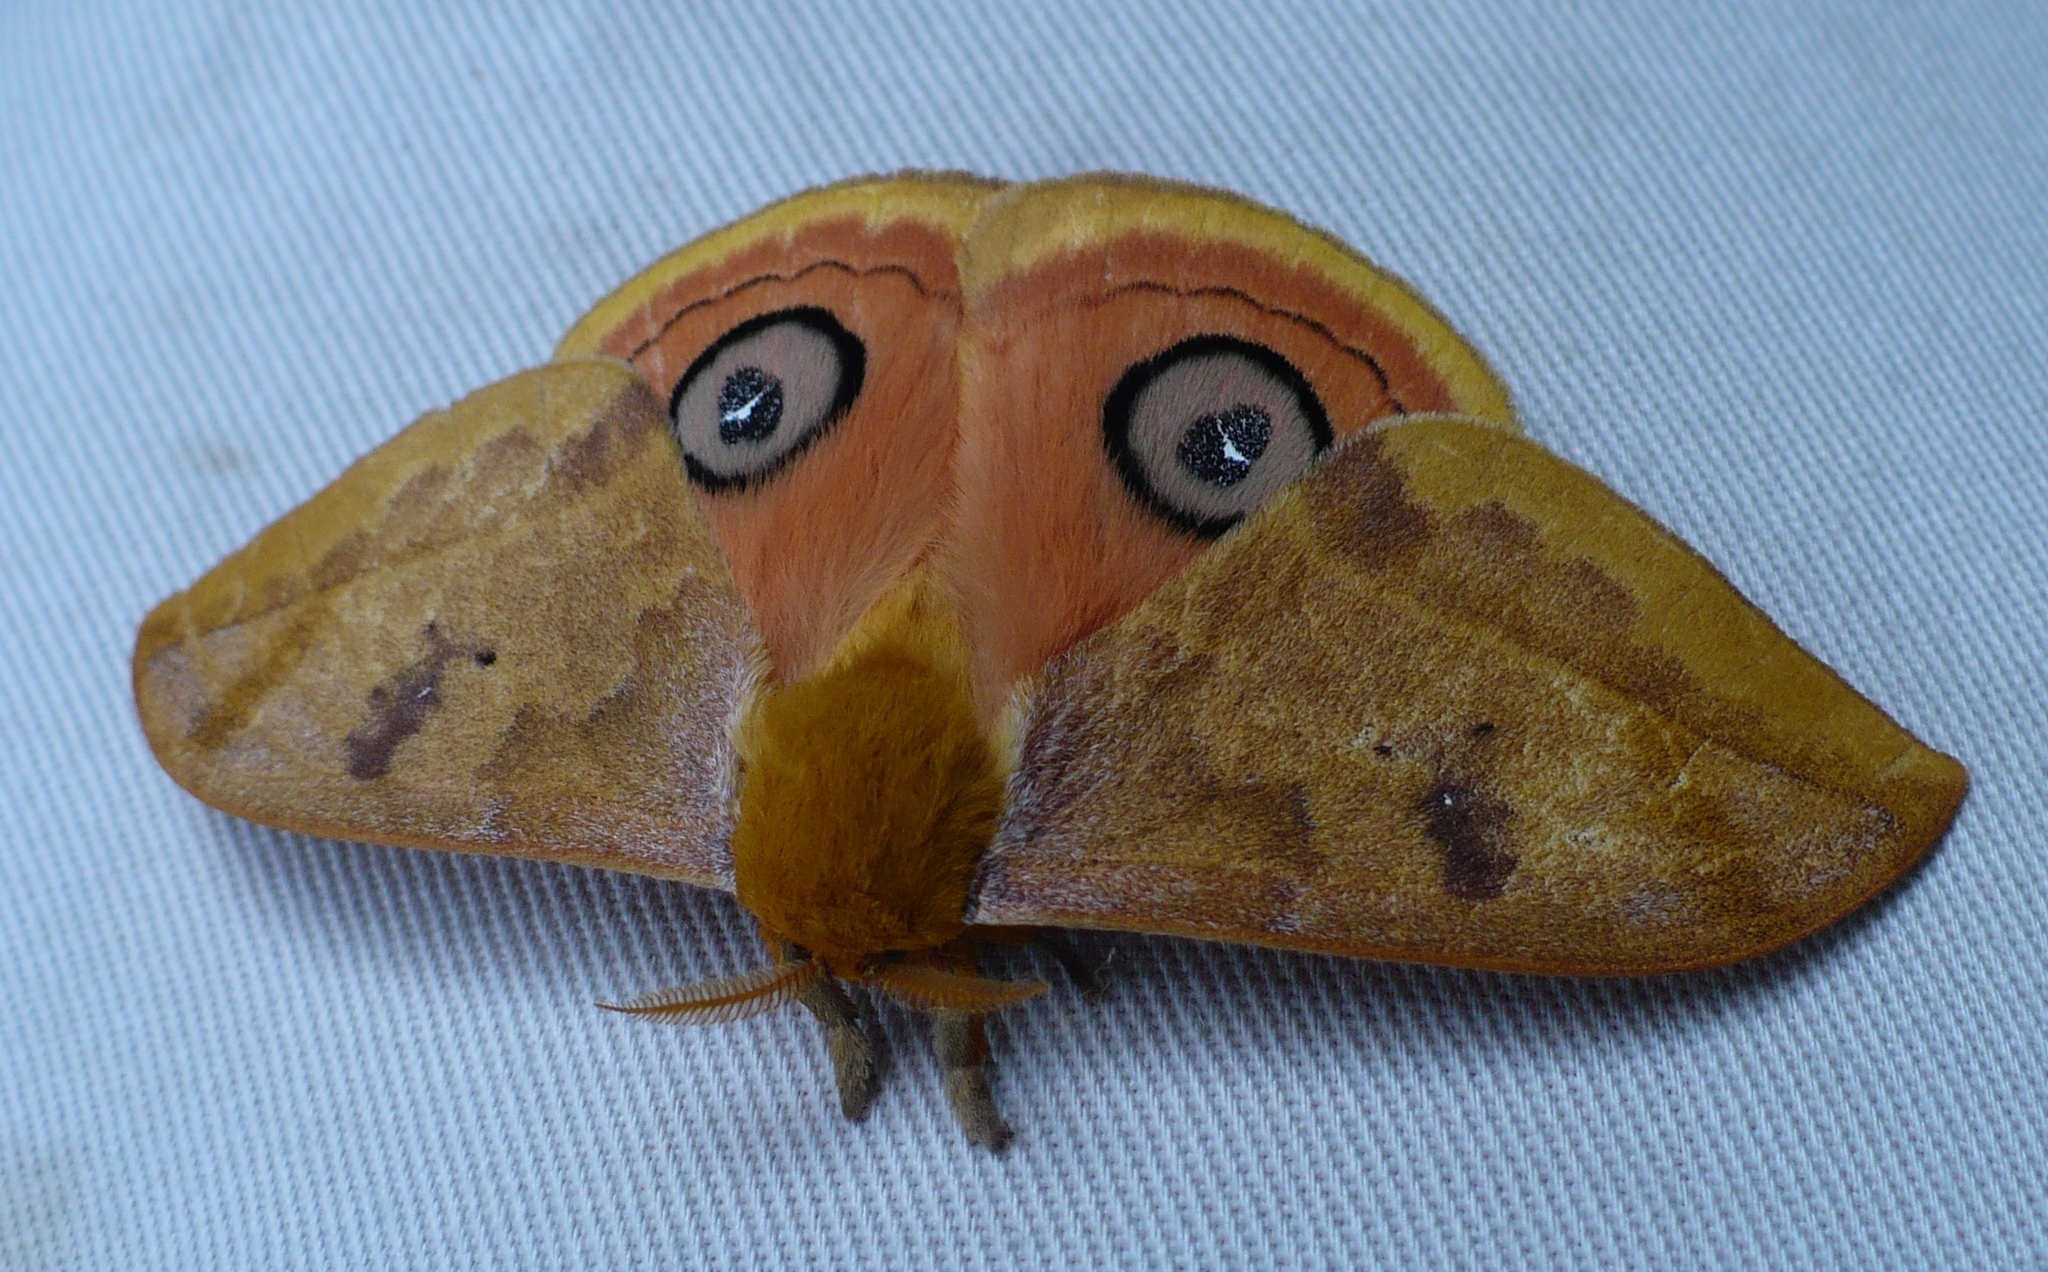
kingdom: Animalia
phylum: Arthropoda
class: Insecta
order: Lepidoptera
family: Saturniidae
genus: Automeris
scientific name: Automeris jucunda
